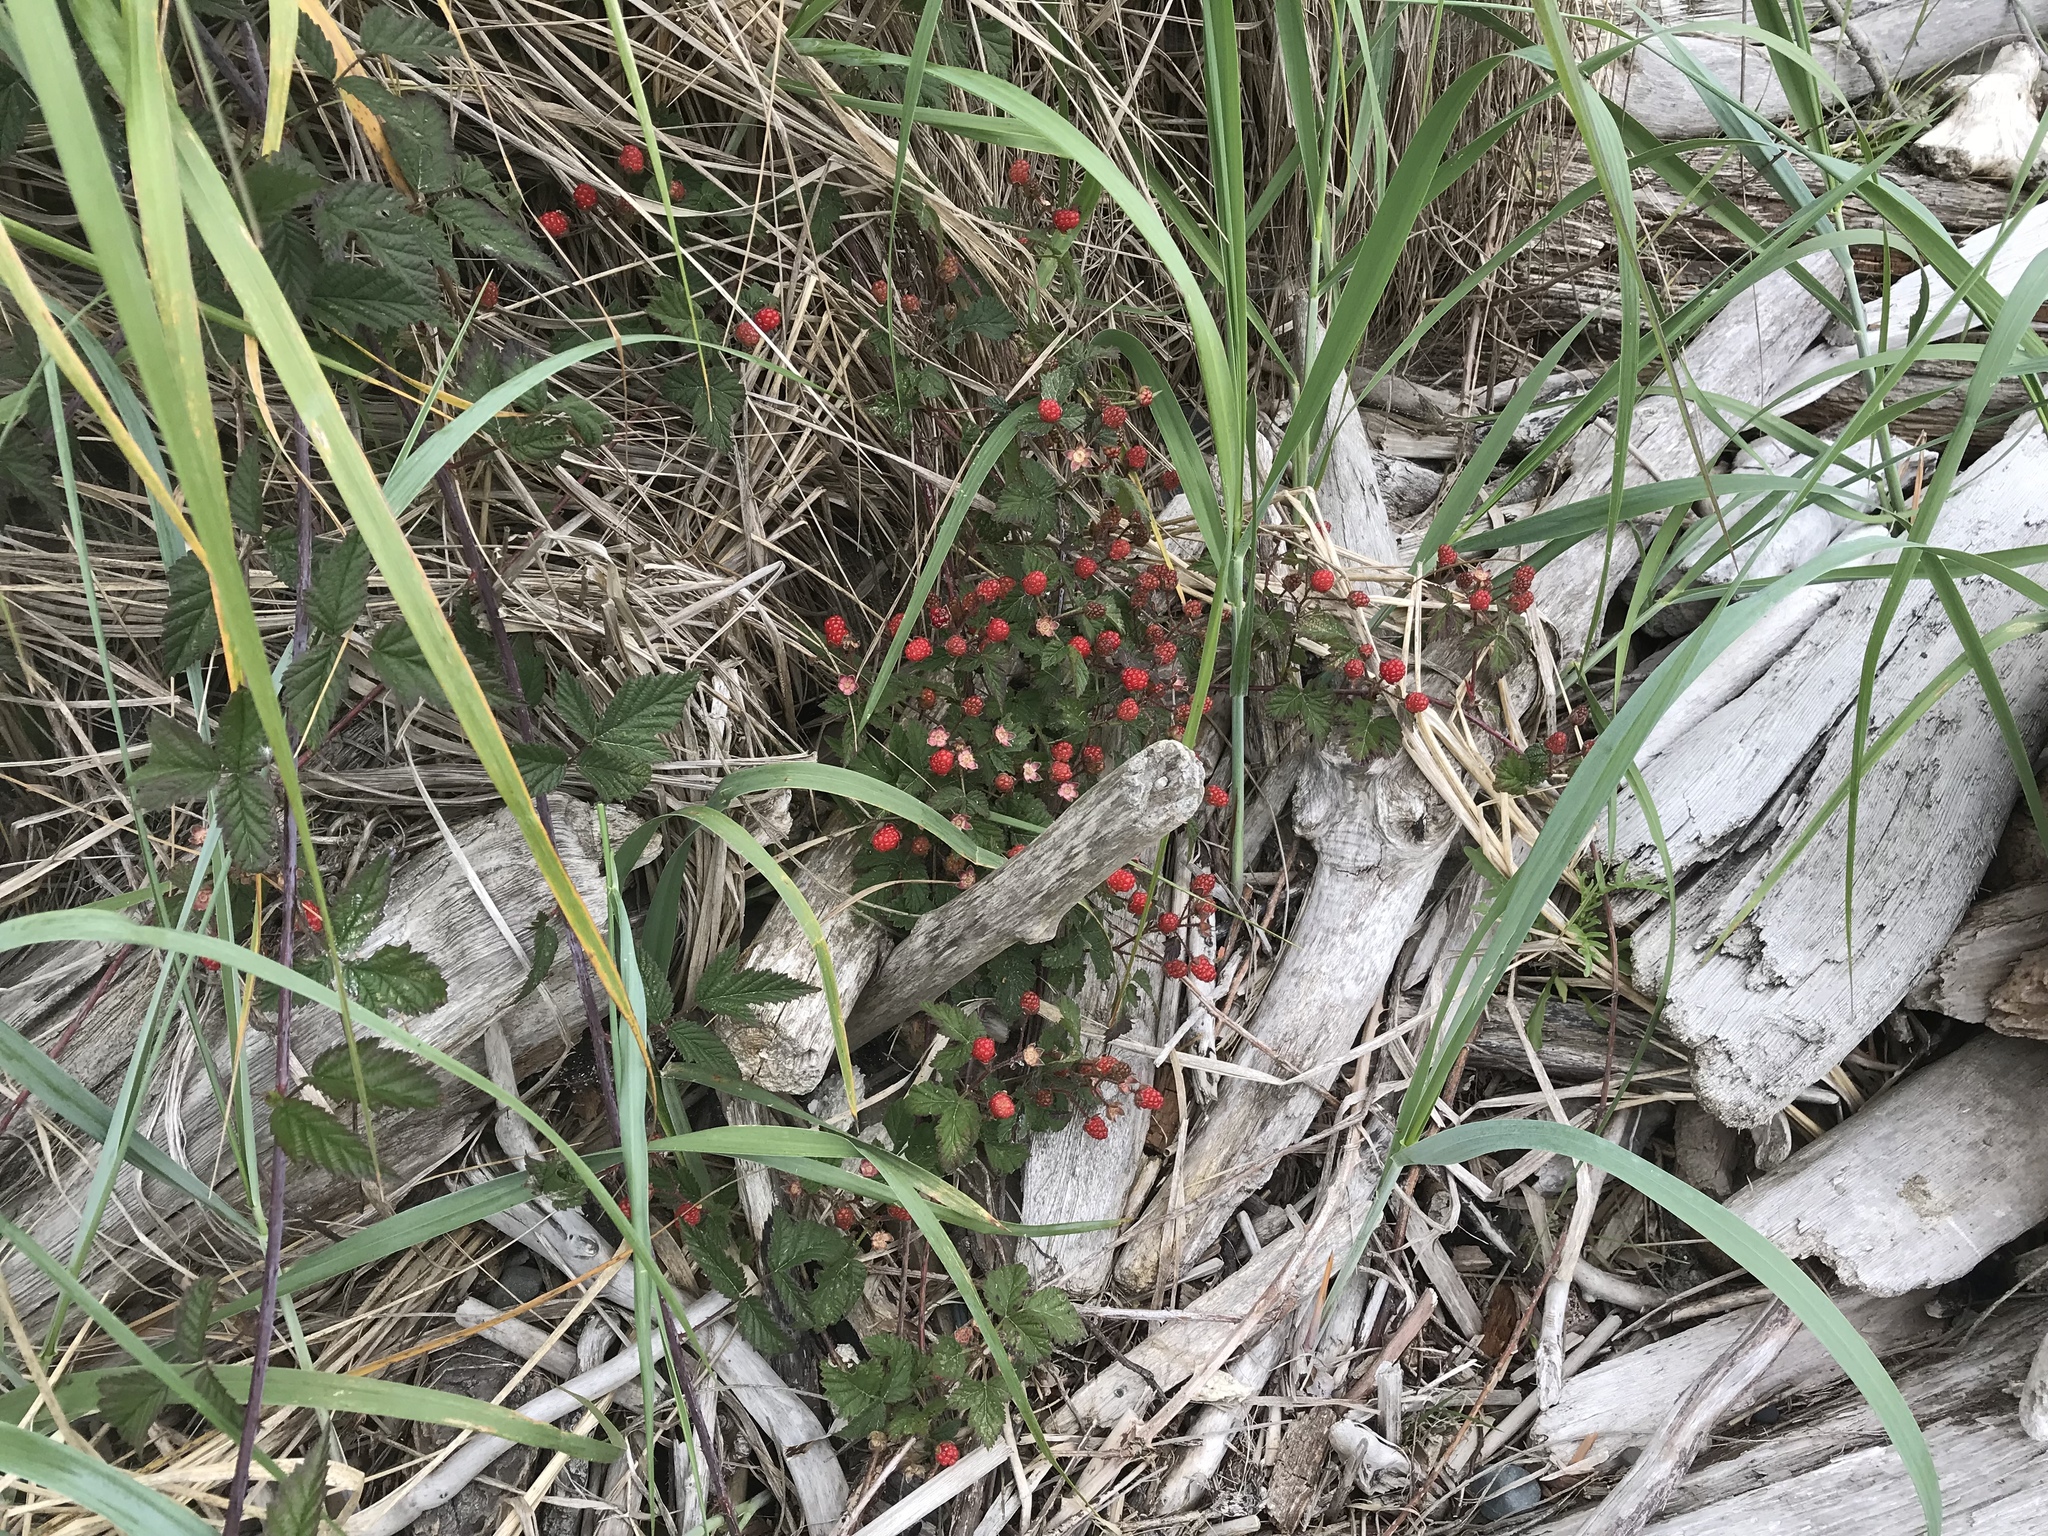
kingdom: Plantae
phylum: Tracheophyta
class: Magnoliopsida
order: Rosales
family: Rosaceae
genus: Rubus
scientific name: Rubus ursinus
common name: Pacific blackberry
